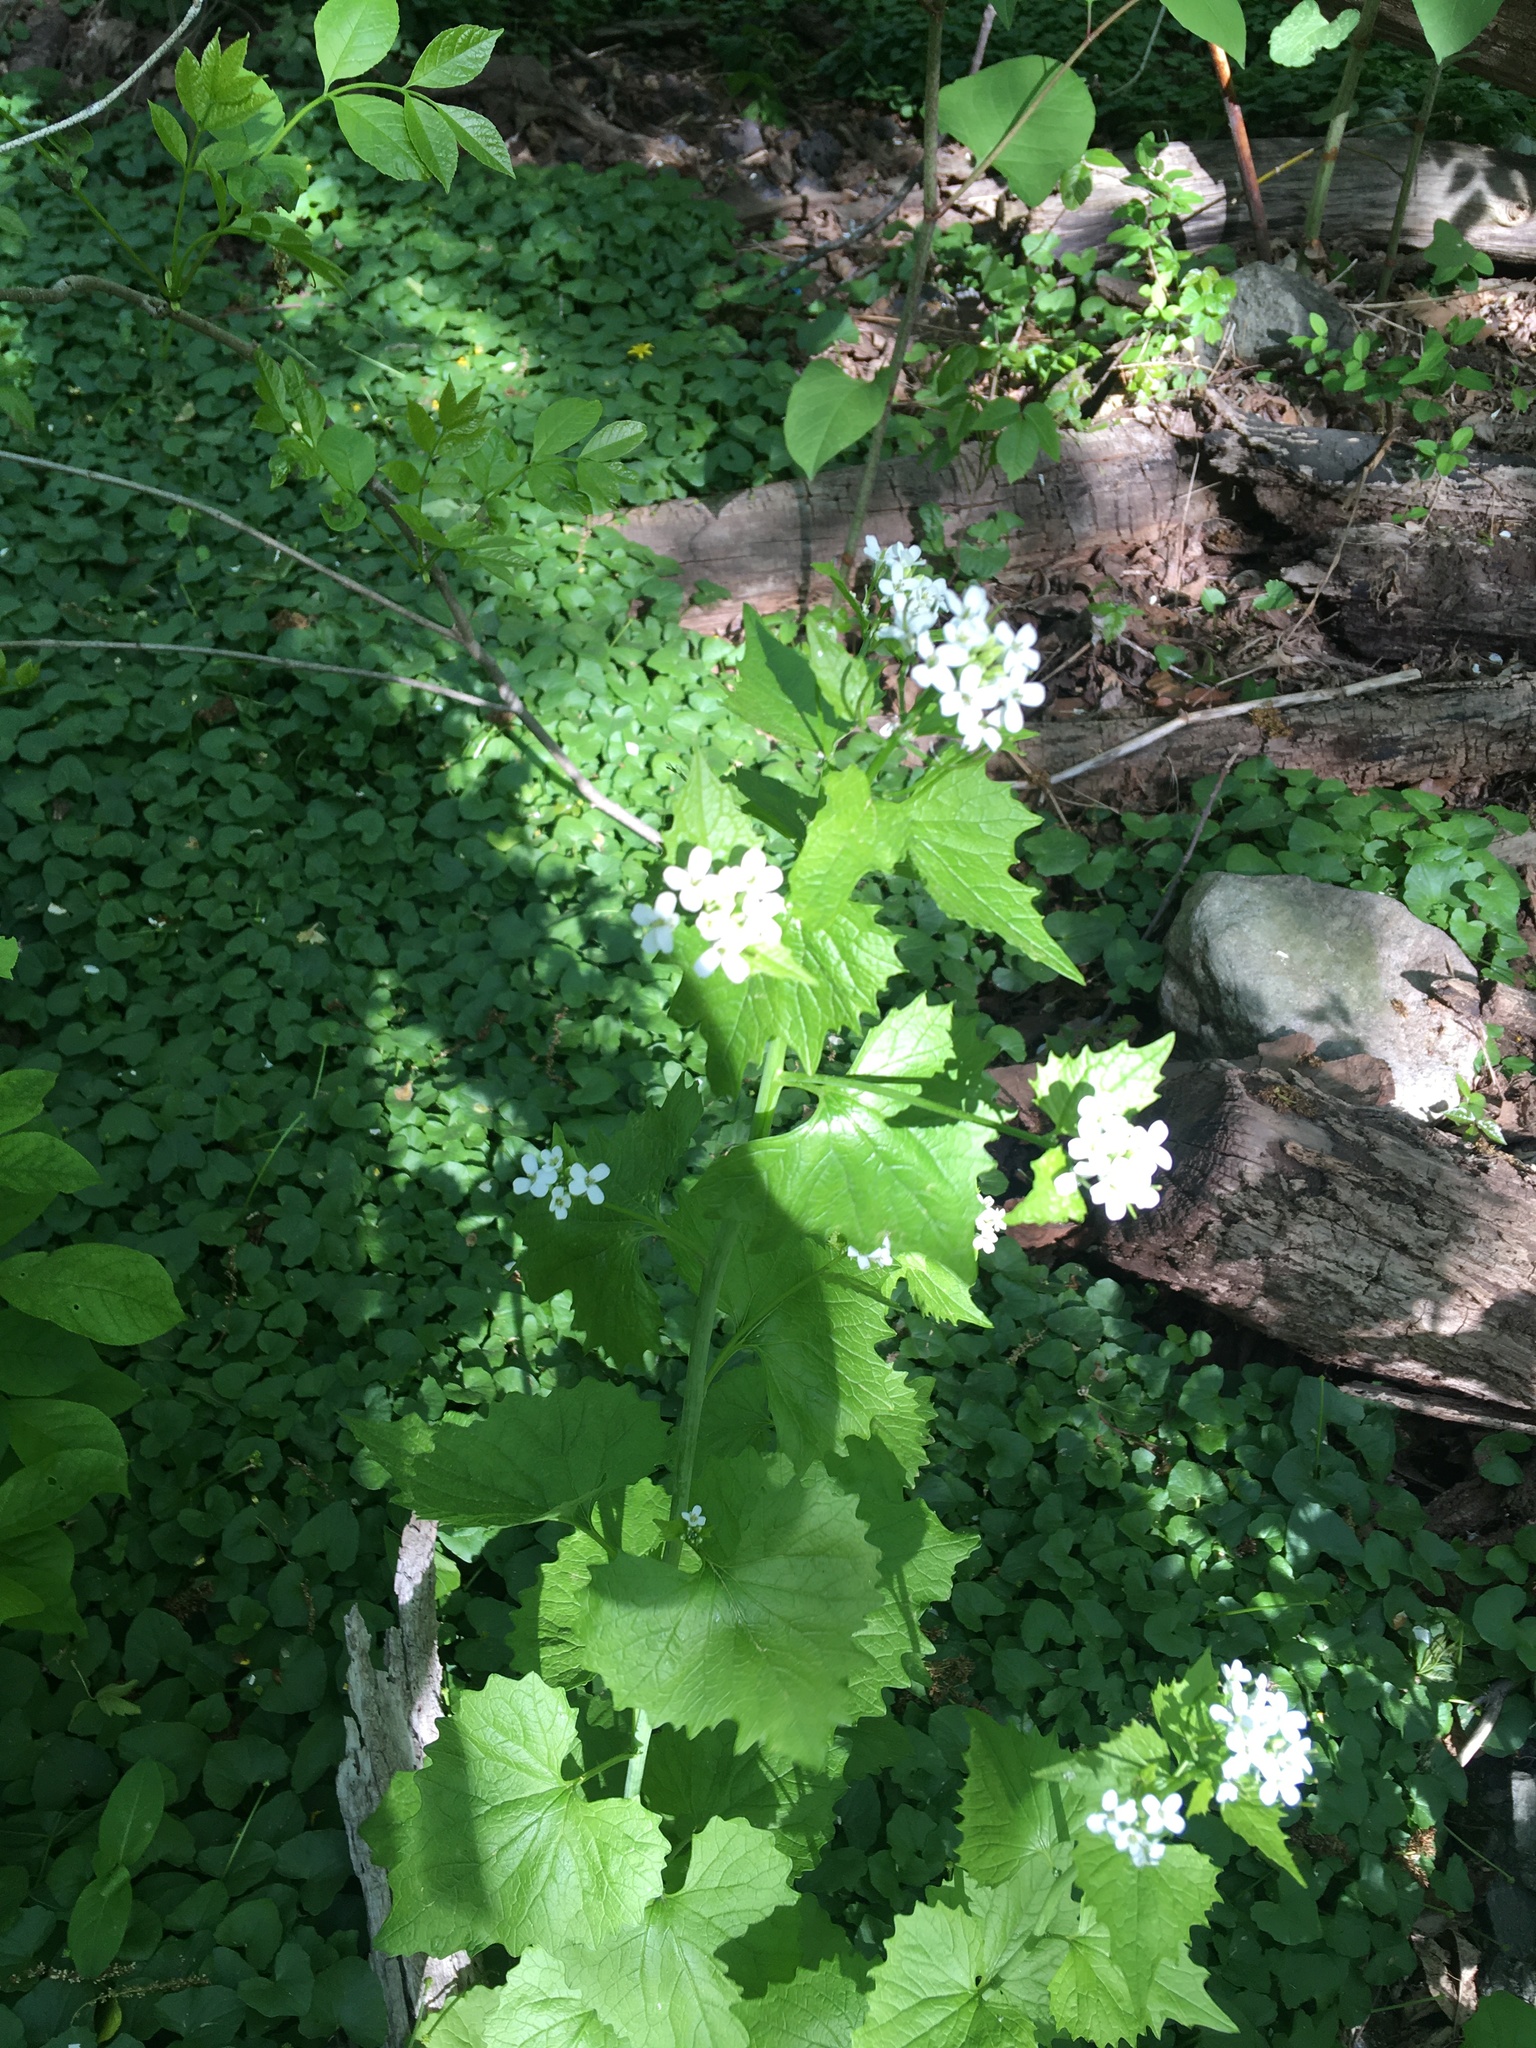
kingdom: Plantae
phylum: Tracheophyta
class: Magnoliopsida
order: Brassicales
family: Brassicaceae
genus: Alliaria
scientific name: Alliaria petiolata
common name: Garlic mustard
